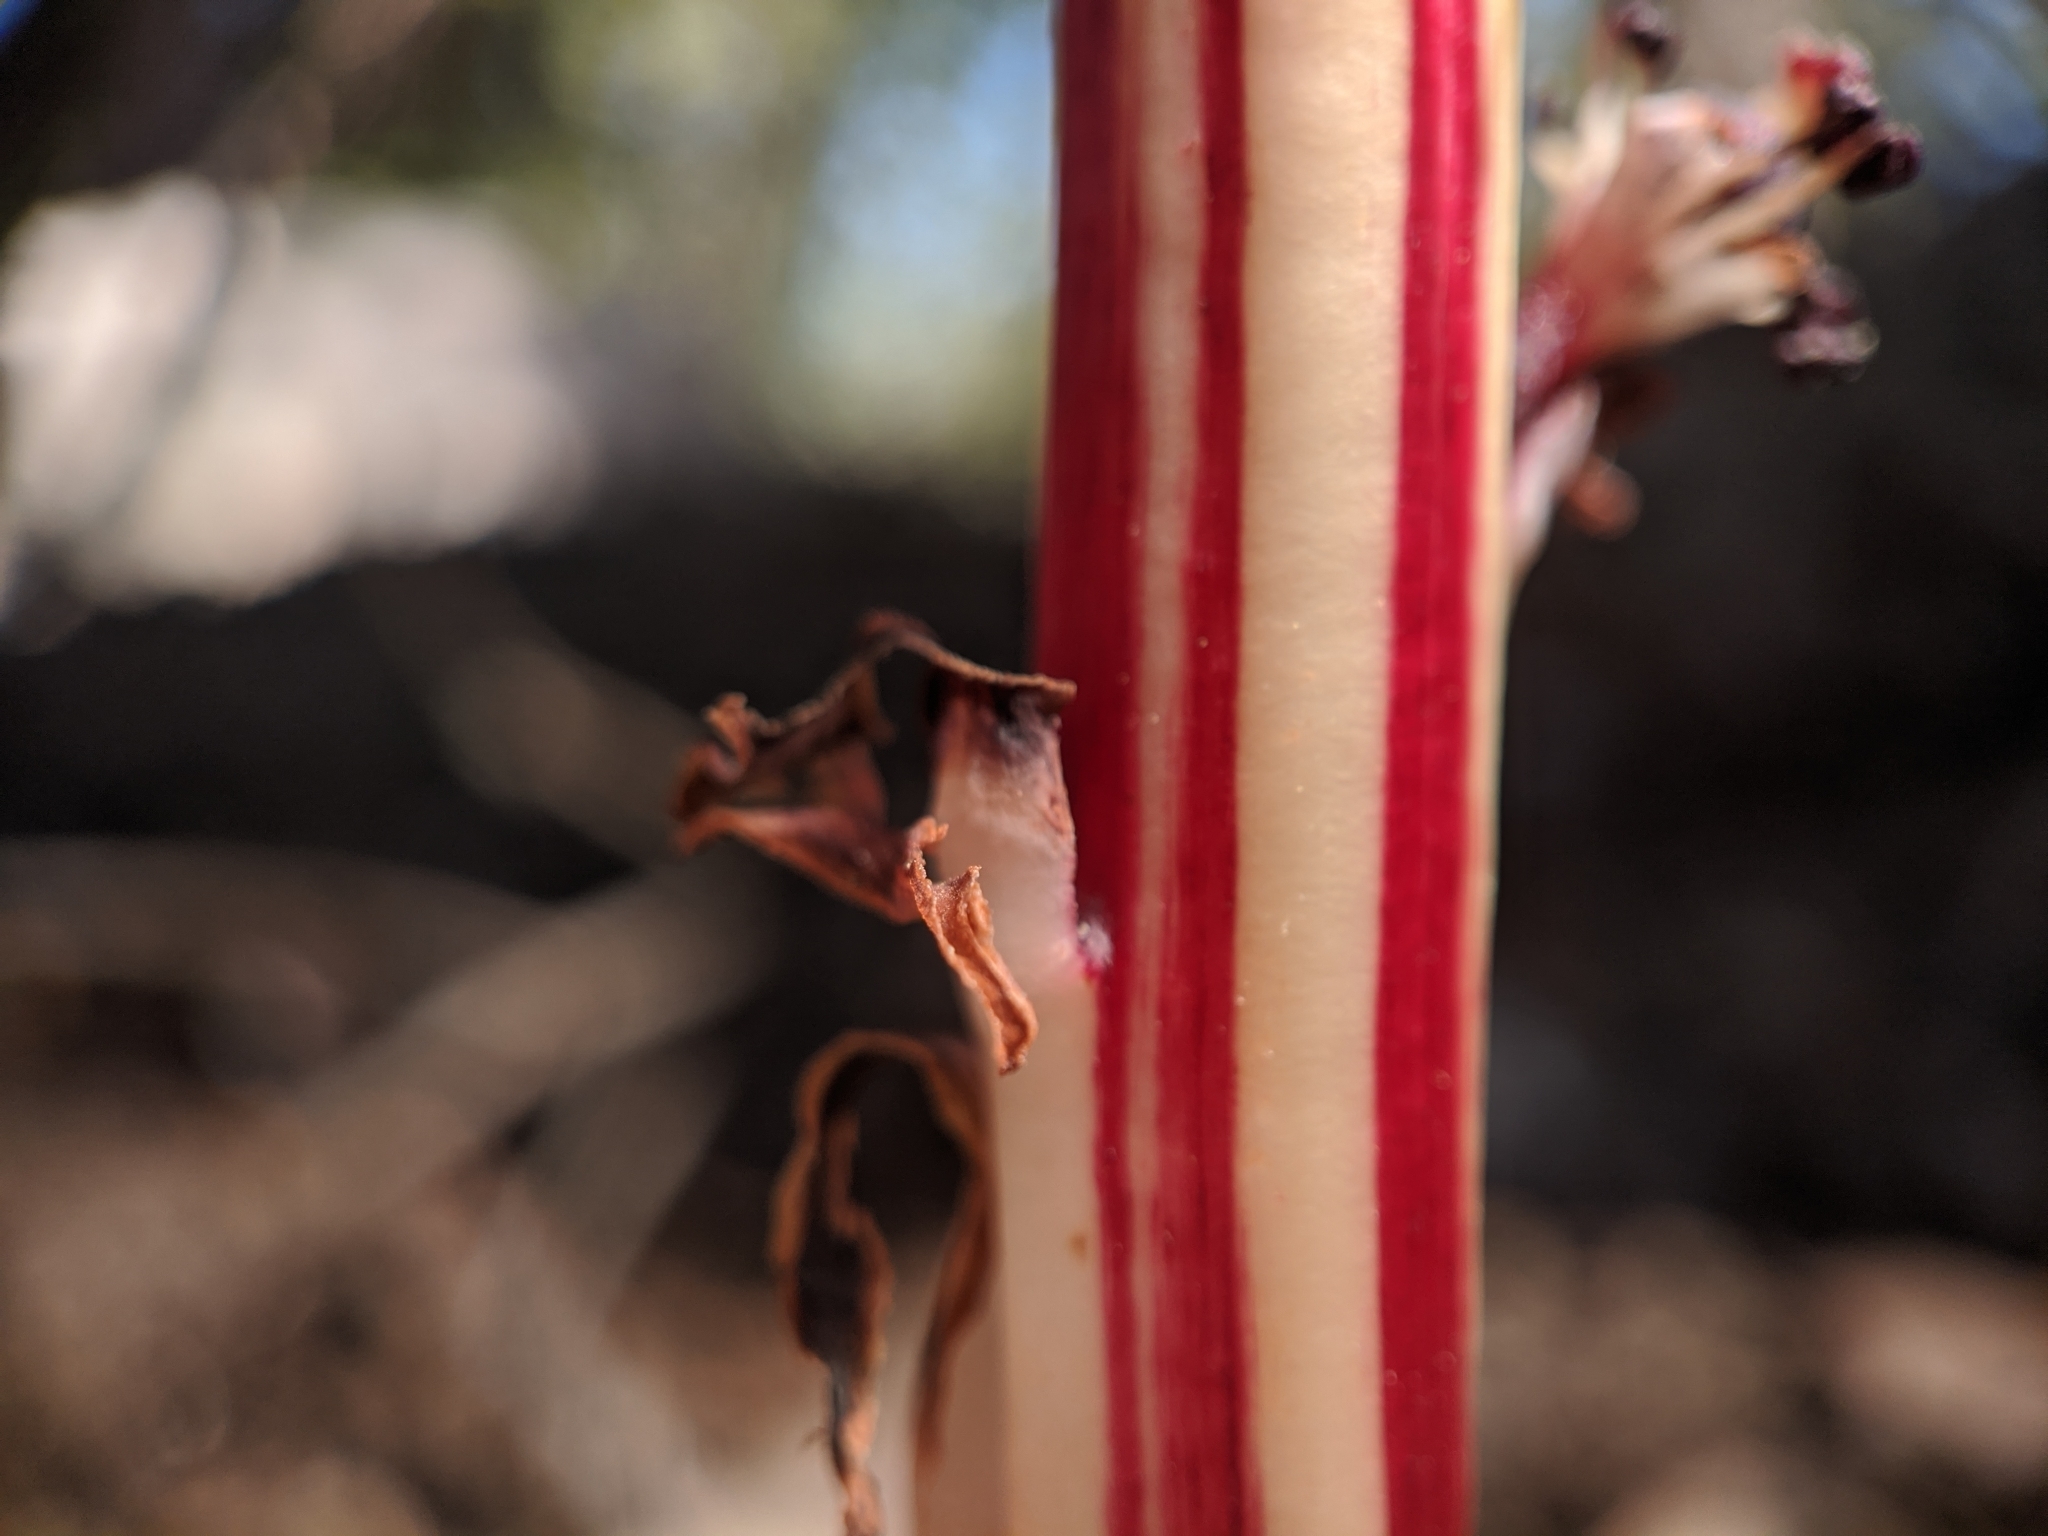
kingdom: Plantae
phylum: Tracheophyta
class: Magnoliopsida
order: Ericales
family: Ericaceae
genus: Allotropa
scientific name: Allotropa virgata
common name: Candy-striped allotropa
